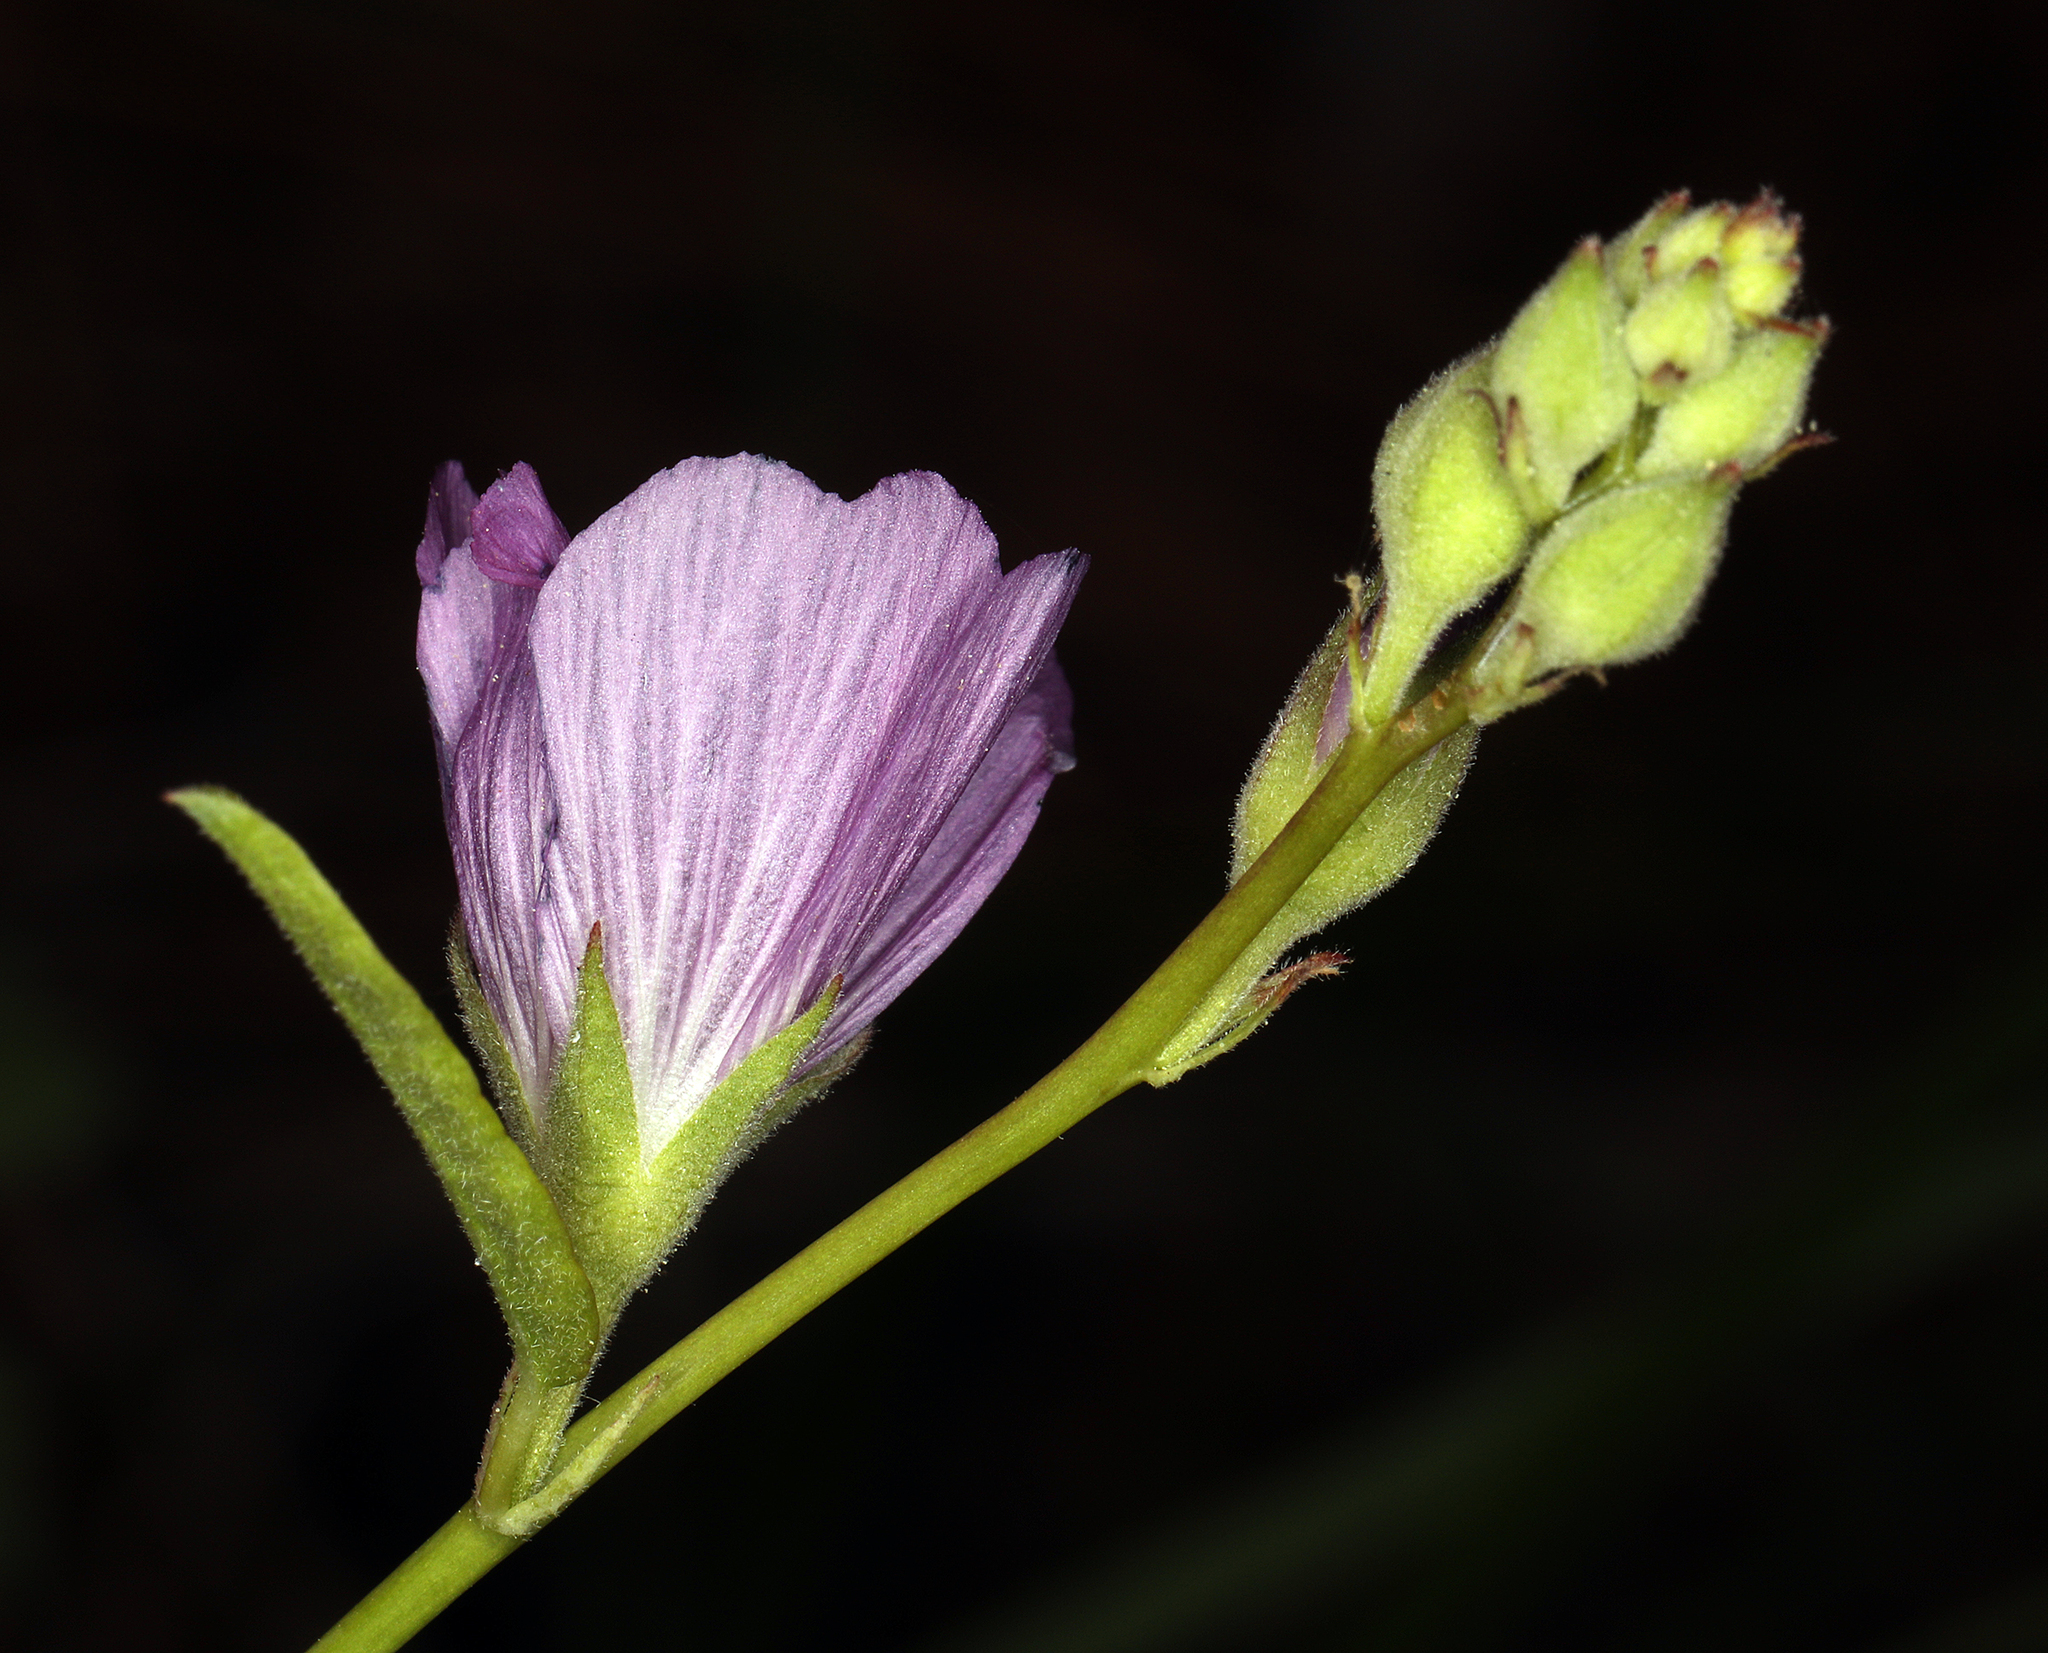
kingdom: Plantae
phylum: Tracheophyta
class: Magnoliopsida
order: Malvales
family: Malvaceae
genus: Sidalcea
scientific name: Sidalcea glaucescens
